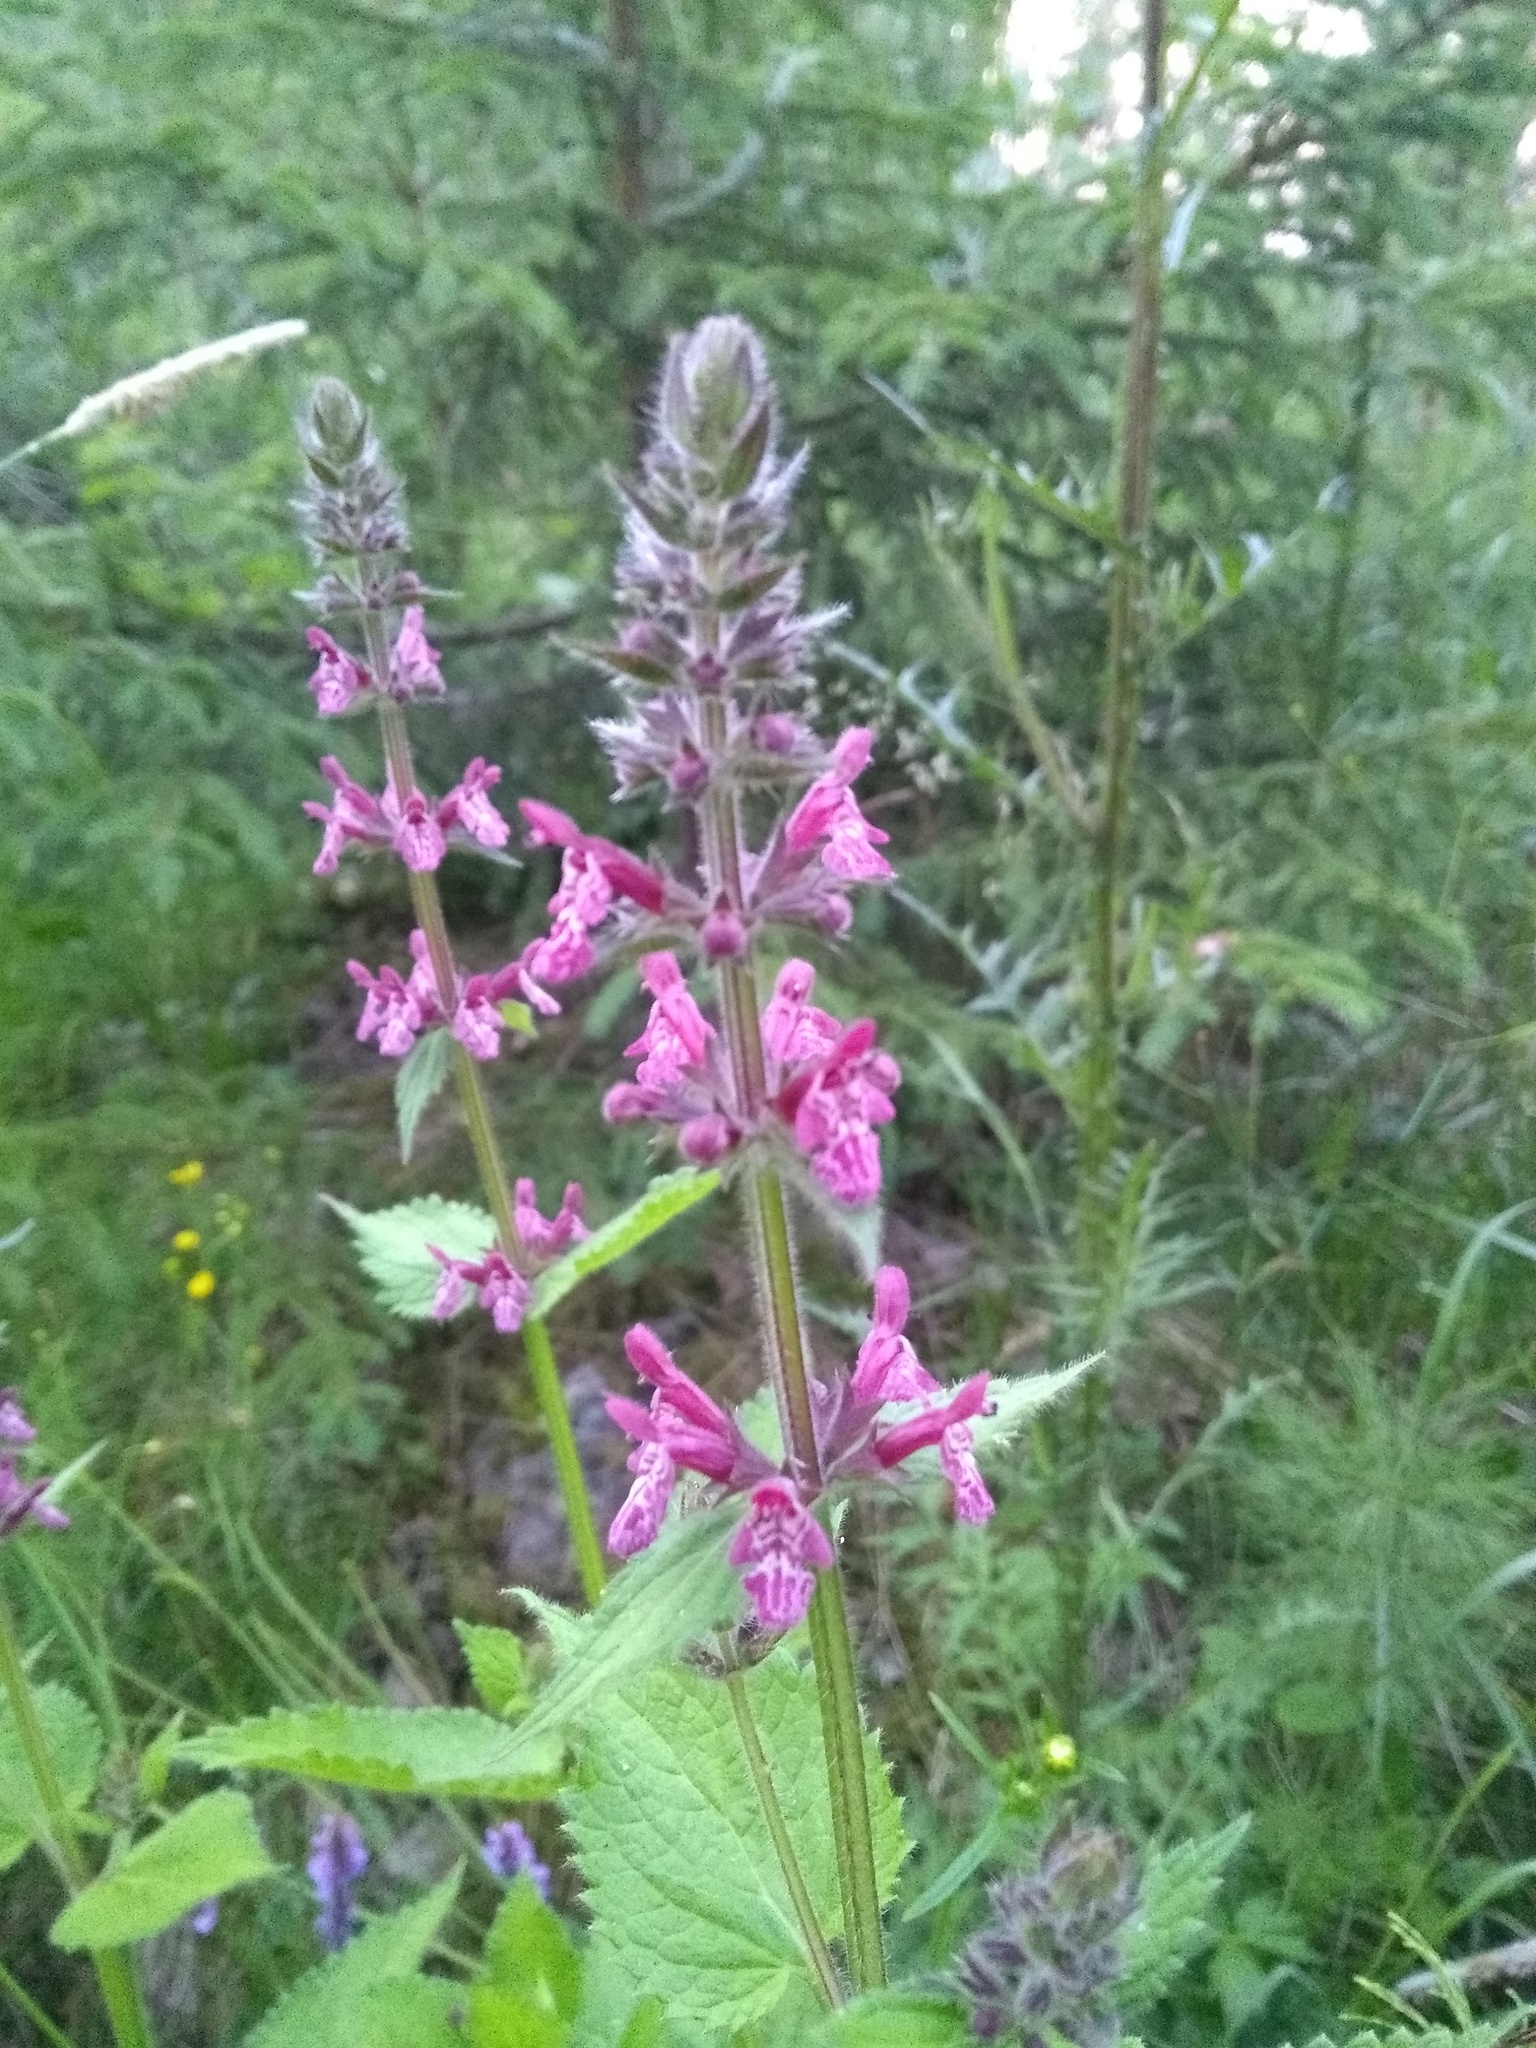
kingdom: Plantae
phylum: Tracheophyta
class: Magnoliopsida
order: Lamiales
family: Lamiaceae
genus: Stachys
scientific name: Stachys sylvatica
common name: Hedge woundwort
